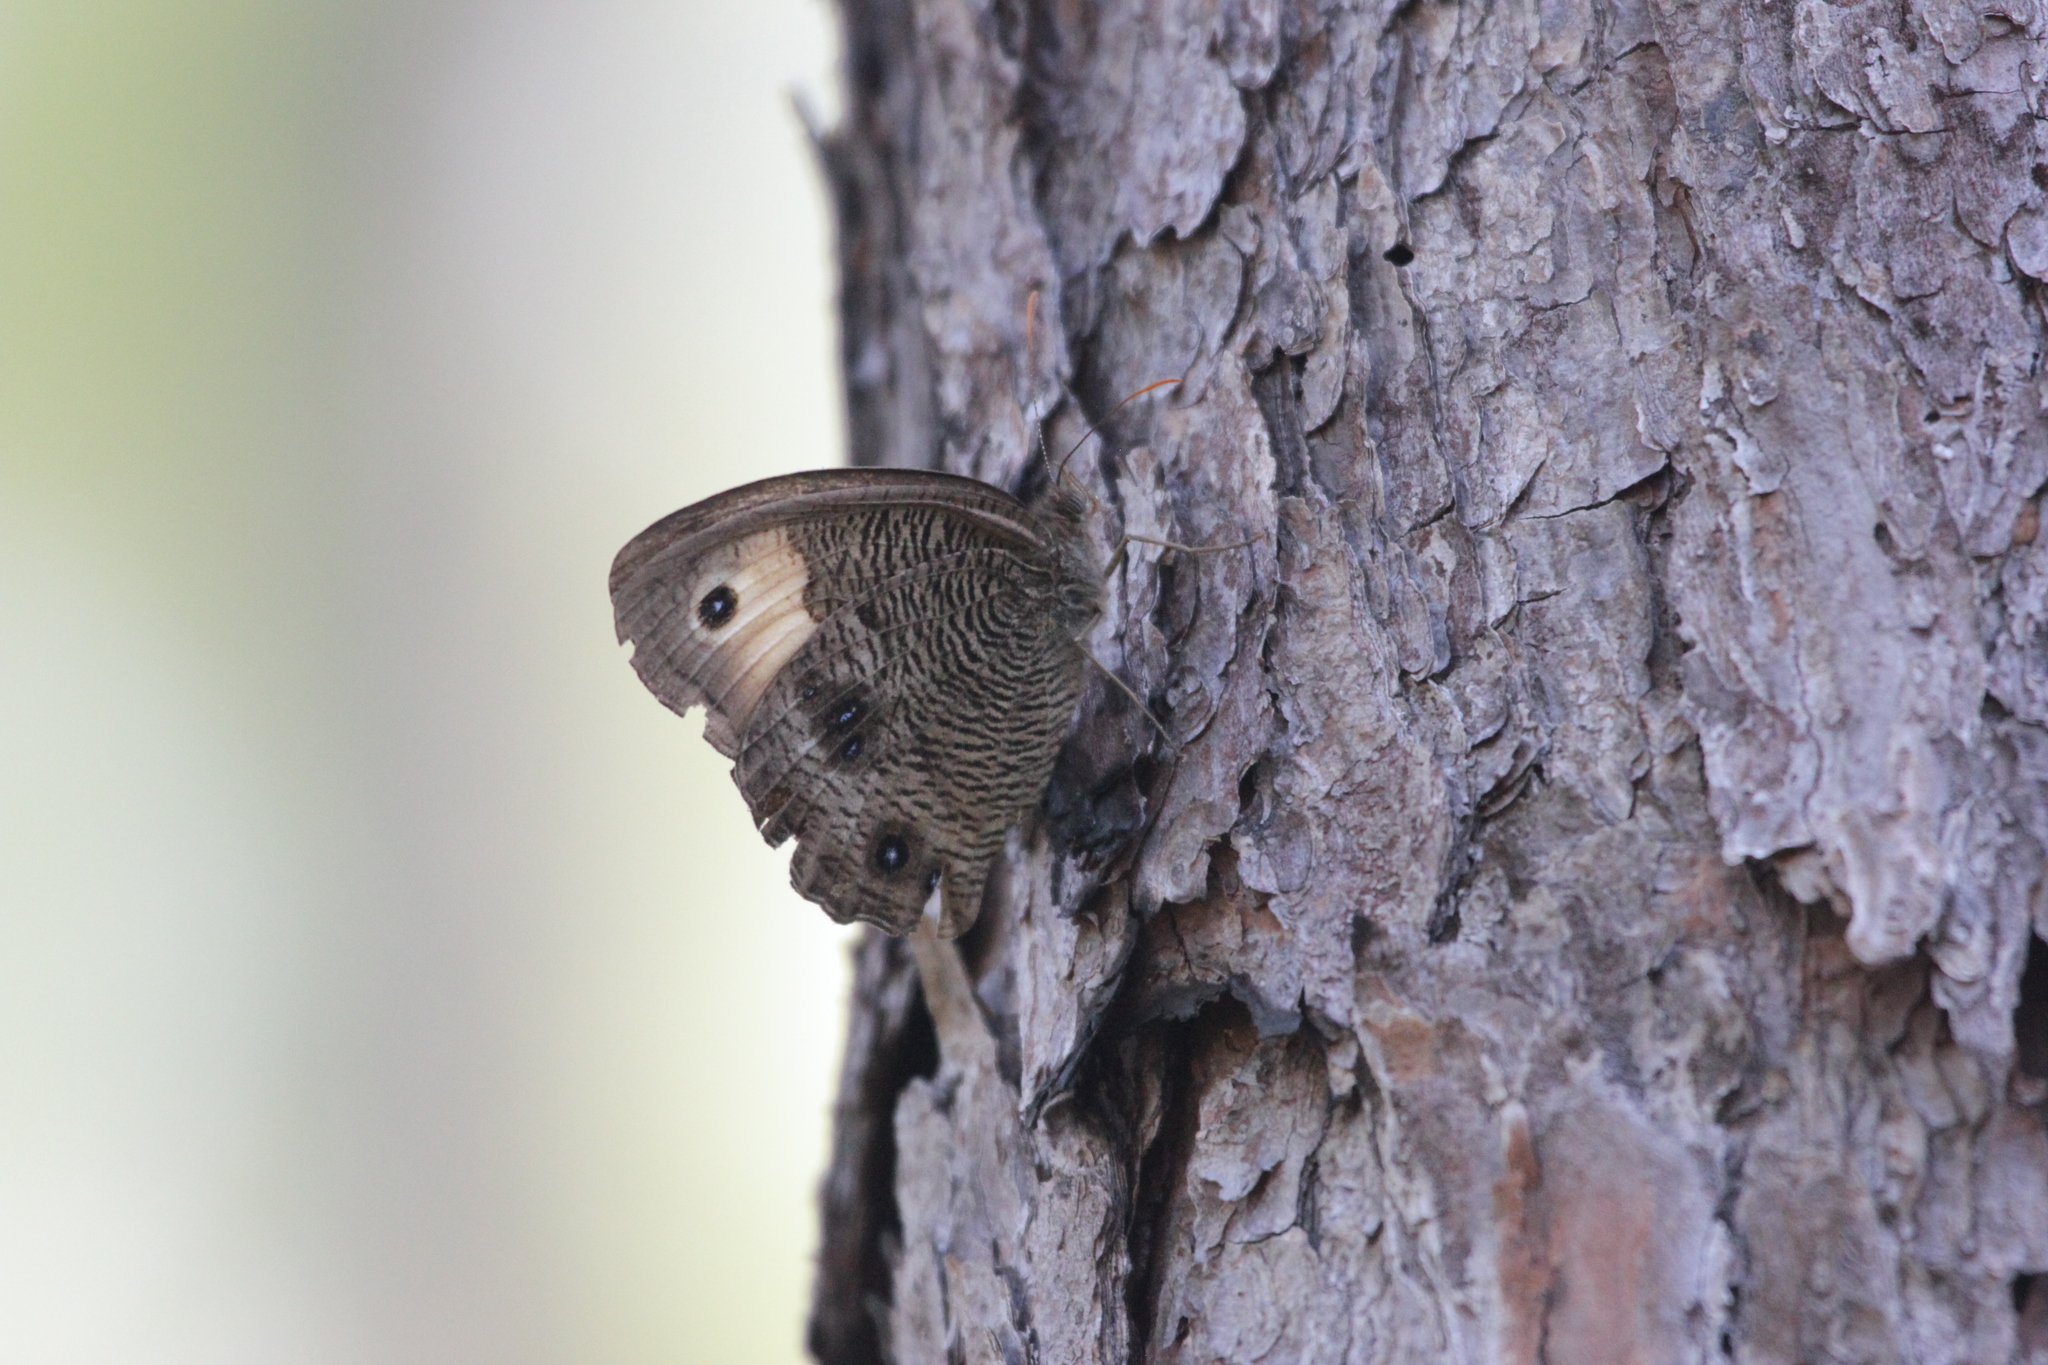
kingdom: Animalia
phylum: Arthropoda
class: Insecta
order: Lepidoptera
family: Nymphalidae
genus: Cercyonis
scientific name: Cercyonis pegala
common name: Common wood-nymph
